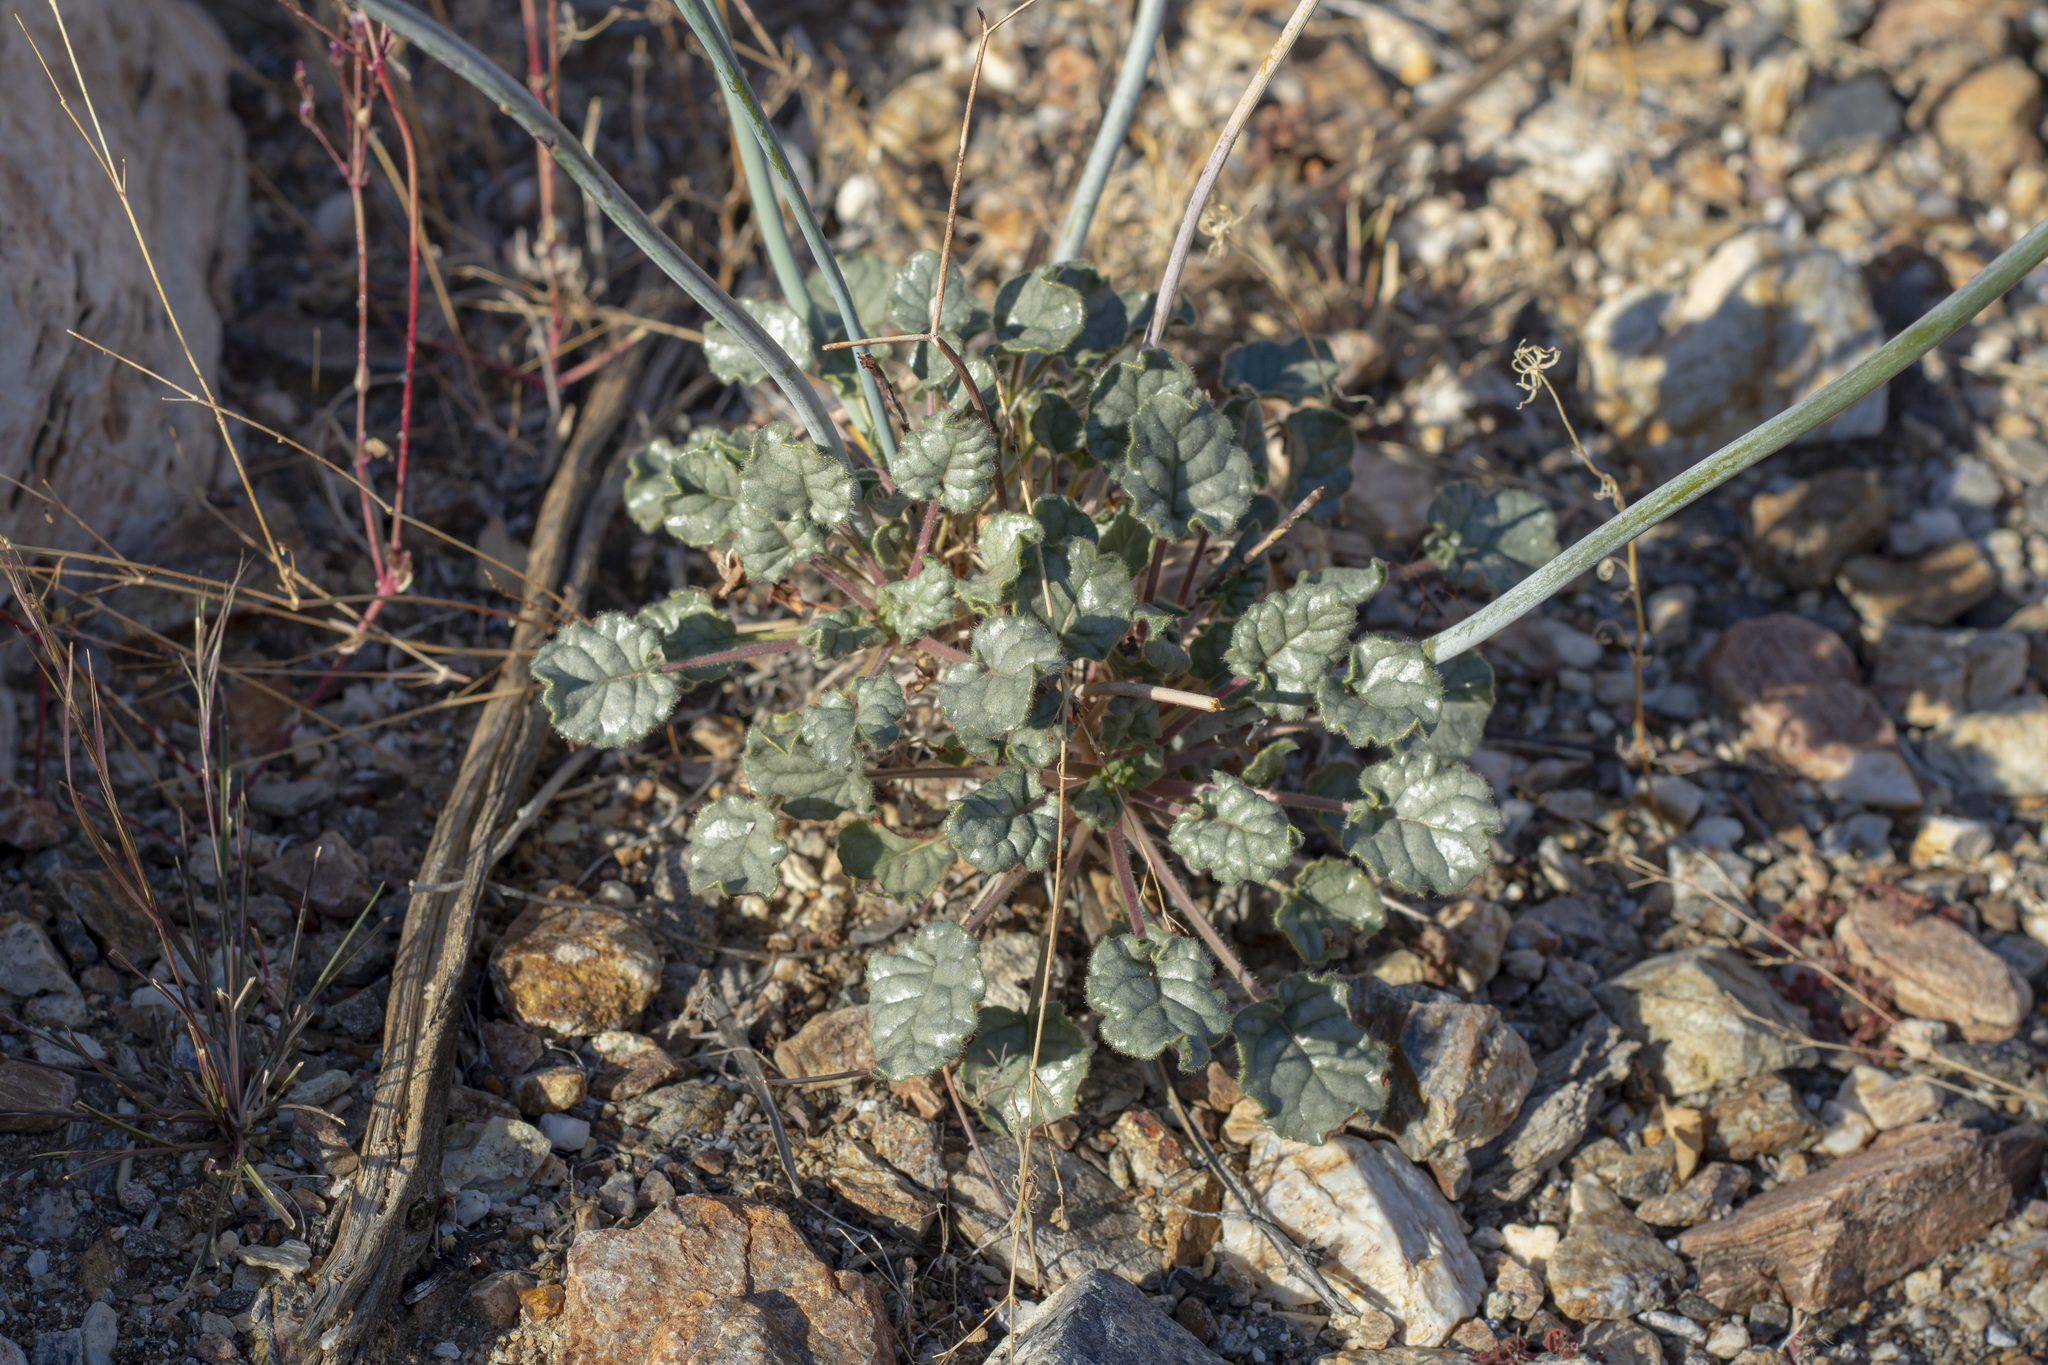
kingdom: Plantae
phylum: Tracheophyta
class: Magnoliopsida
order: Caryophyllales
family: Polygonaceae
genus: Eriogonum
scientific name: Eriogonum inflatum
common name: Desert trumpet
